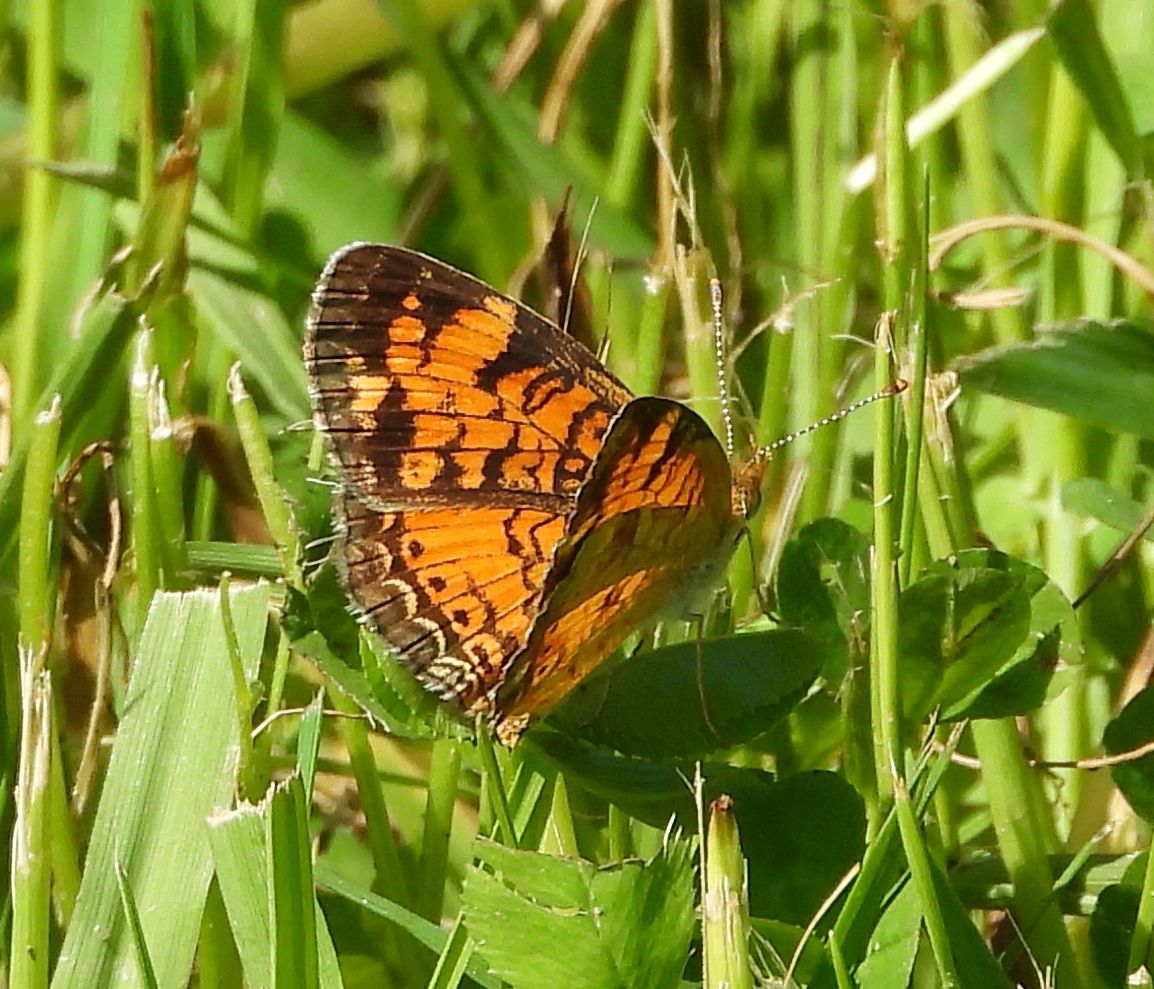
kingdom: Animalia
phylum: Arthropoda
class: Insecta
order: Lepidoptera
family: Nymphalidae
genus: Phyciodes
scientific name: Phyciodes tharos
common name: Pearl crescent
